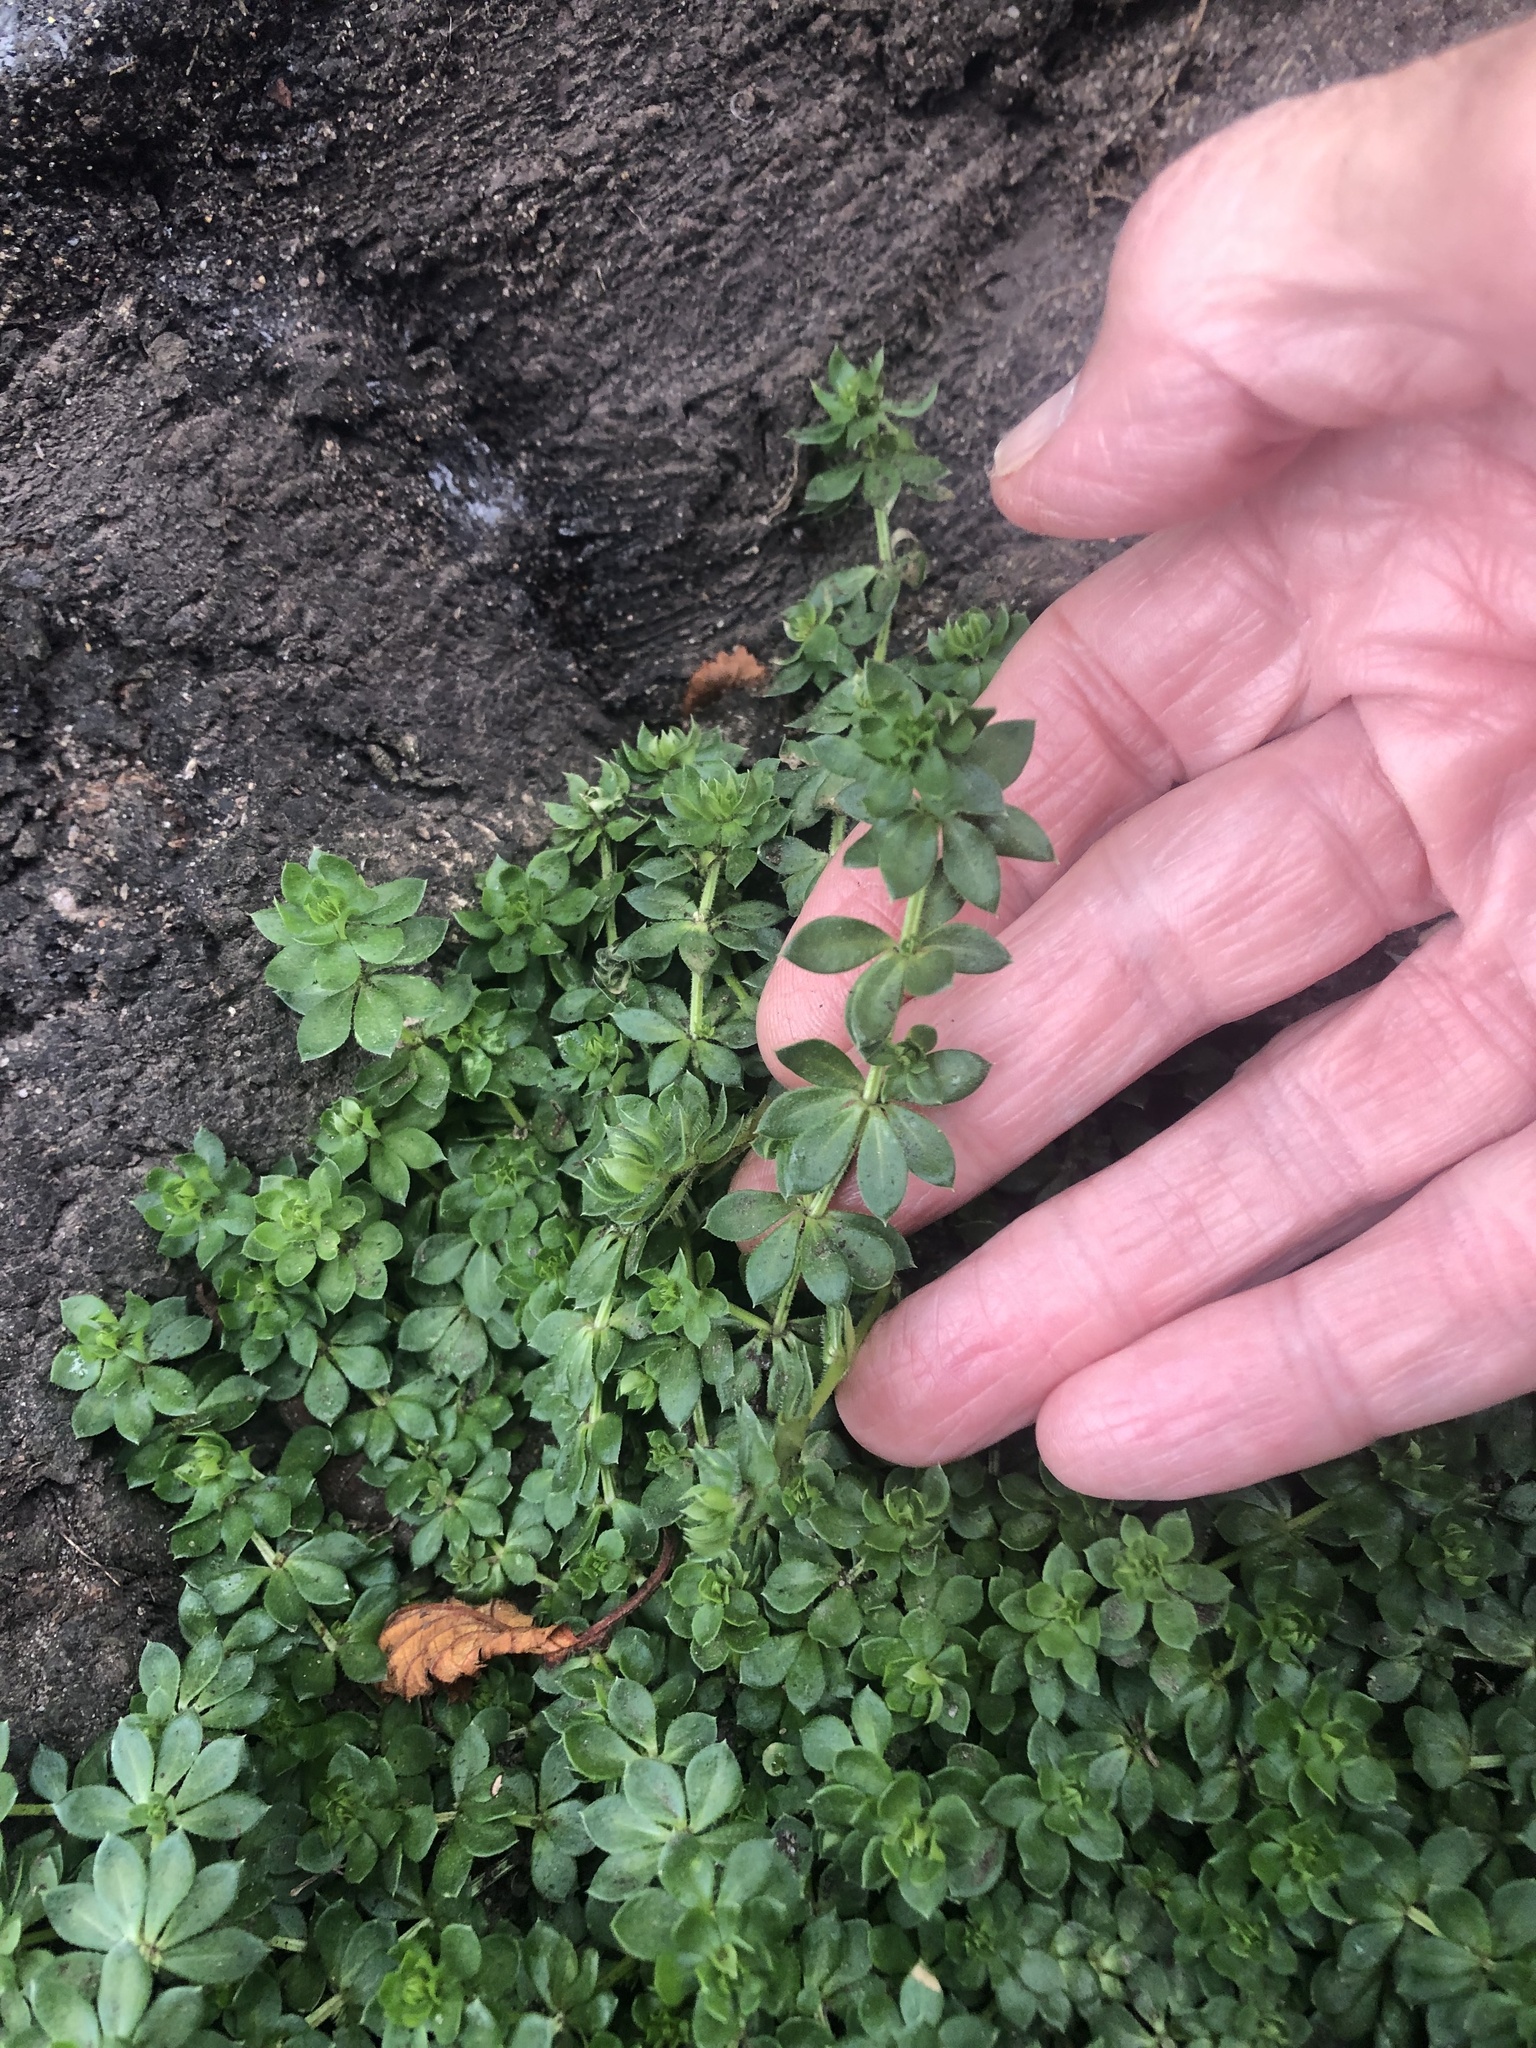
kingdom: Plantae
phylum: Tracheophyta
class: Magnoliopsida
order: Gentianales
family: Rubiaceae
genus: Sherardia
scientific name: Sherardia arvensis
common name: Field madder
